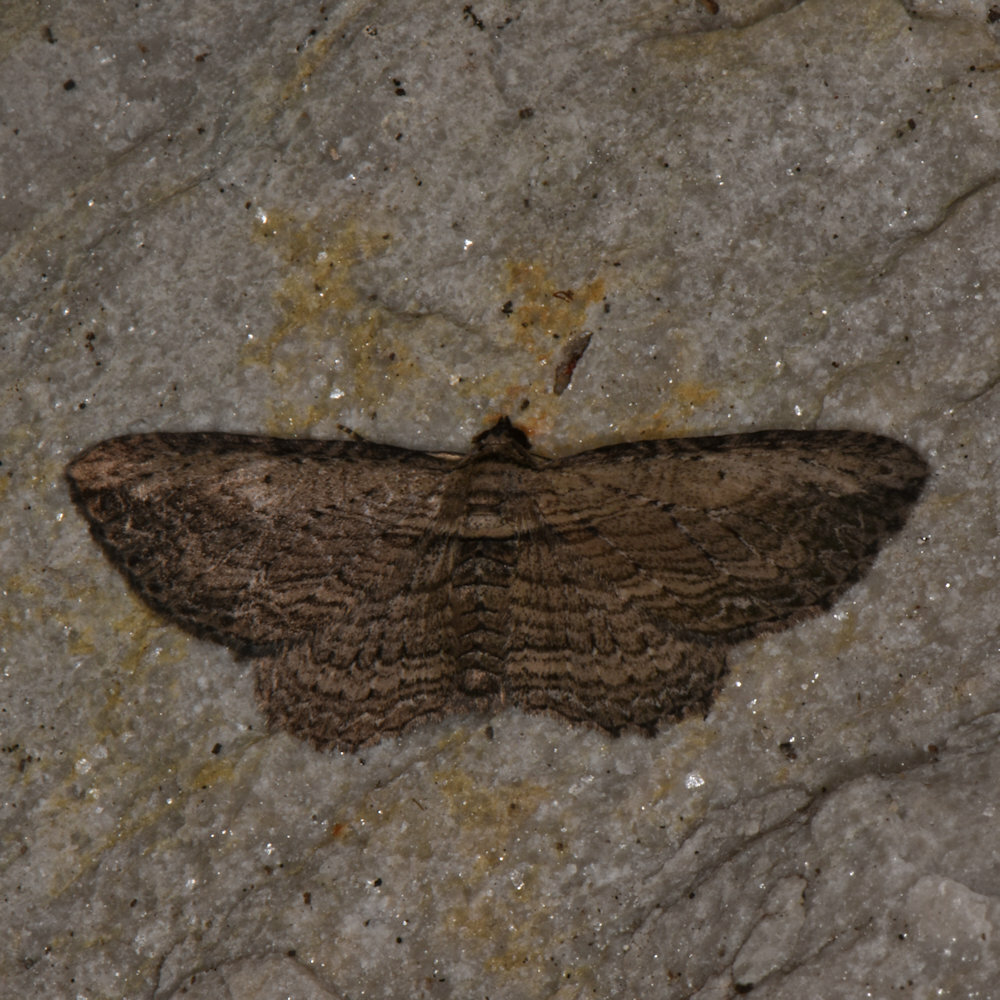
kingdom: Animalia
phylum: Arthropoda
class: Insecta
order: Lepidoptera
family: Geometridae
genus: Horisme
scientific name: Horisme intestinata
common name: Brown bark carpet
